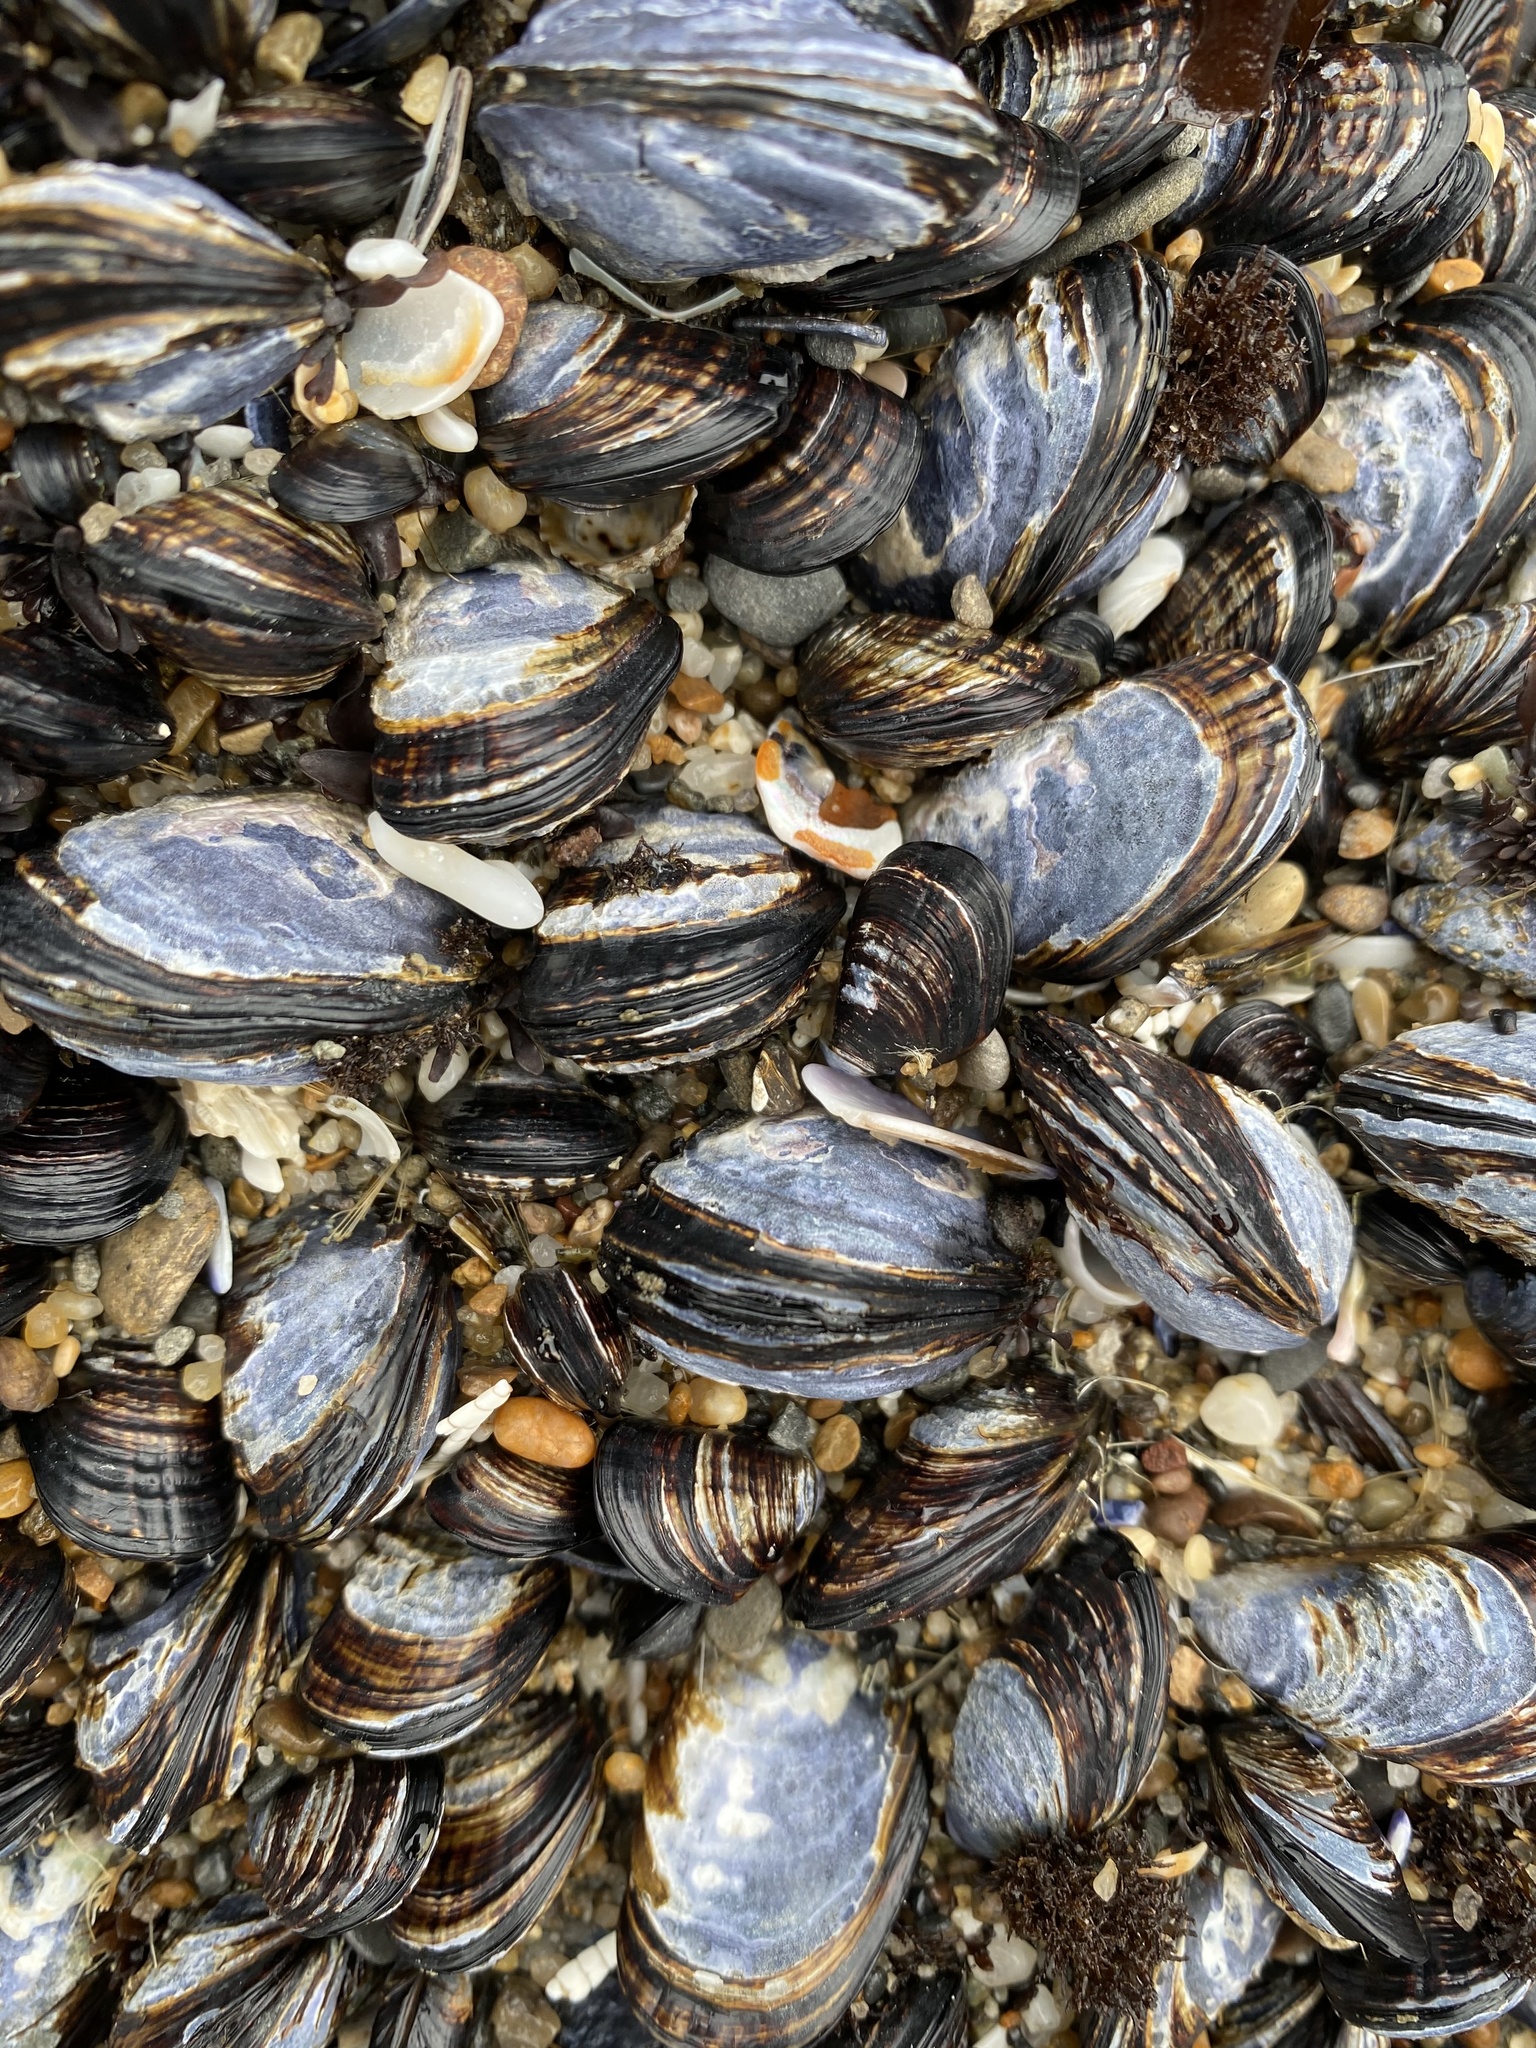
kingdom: Animalia
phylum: Mollusca
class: Bivalvia
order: Mytilida
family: Mytilidae
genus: Mytilus
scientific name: Mytilus californianus
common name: California mussel
